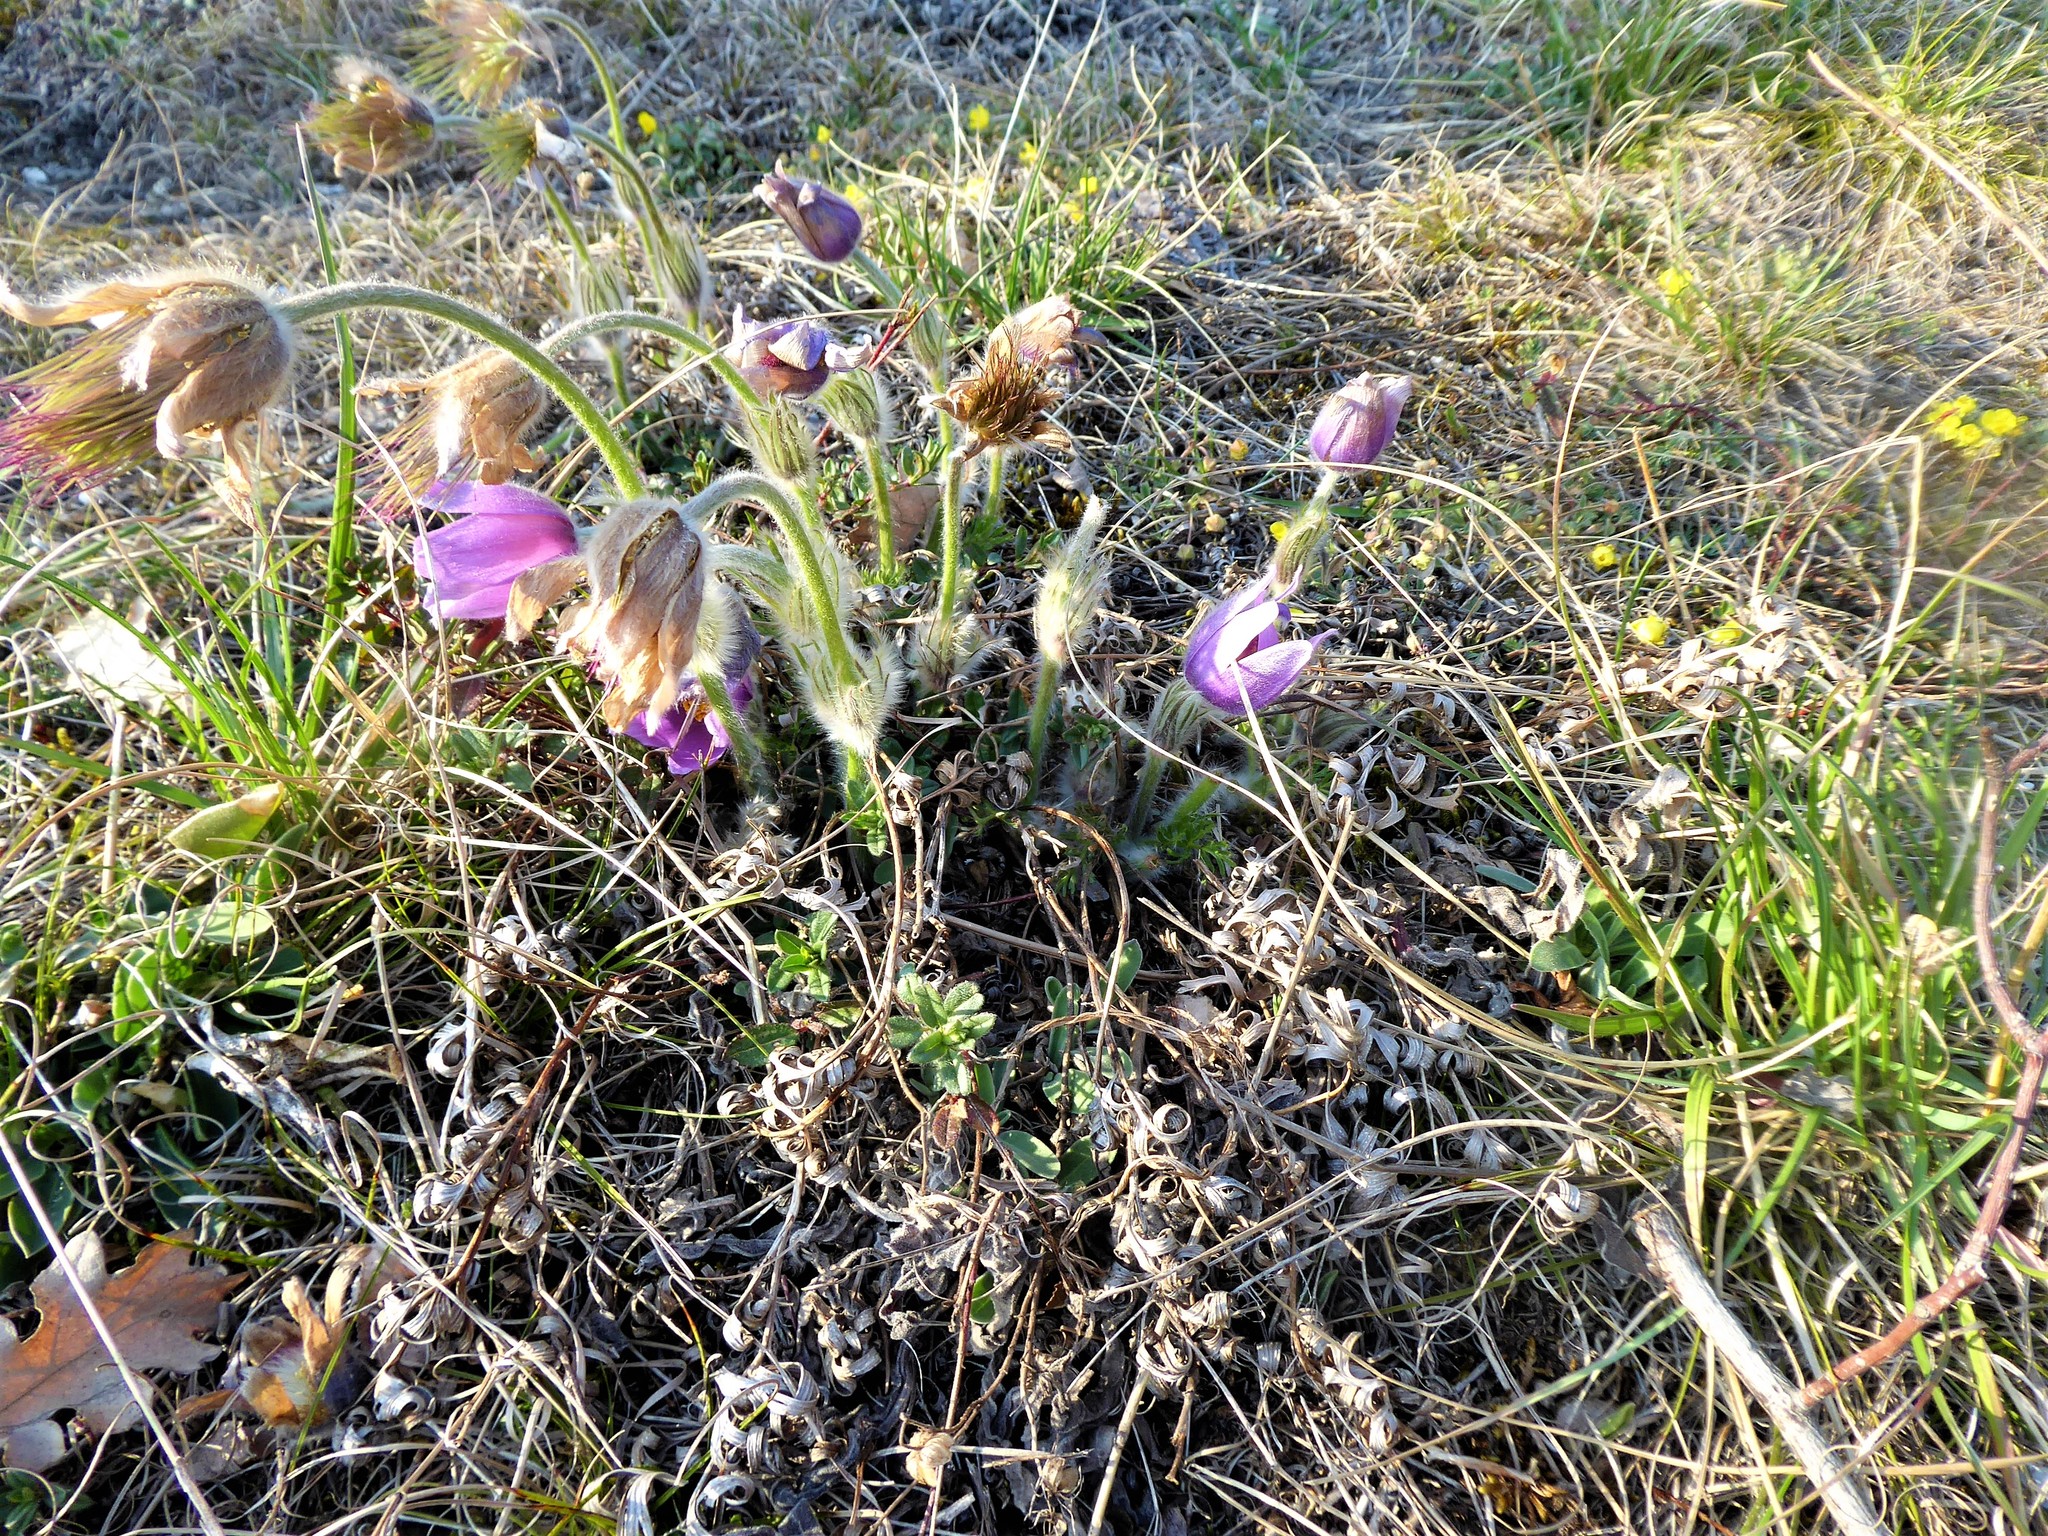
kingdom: Plantae
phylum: Tracheophyta
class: Magnoliopsida
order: Ranunculales
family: Ranunculaceae
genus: Pulsatilla
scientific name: Pulsatilla grandis
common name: Greater pasque flower
